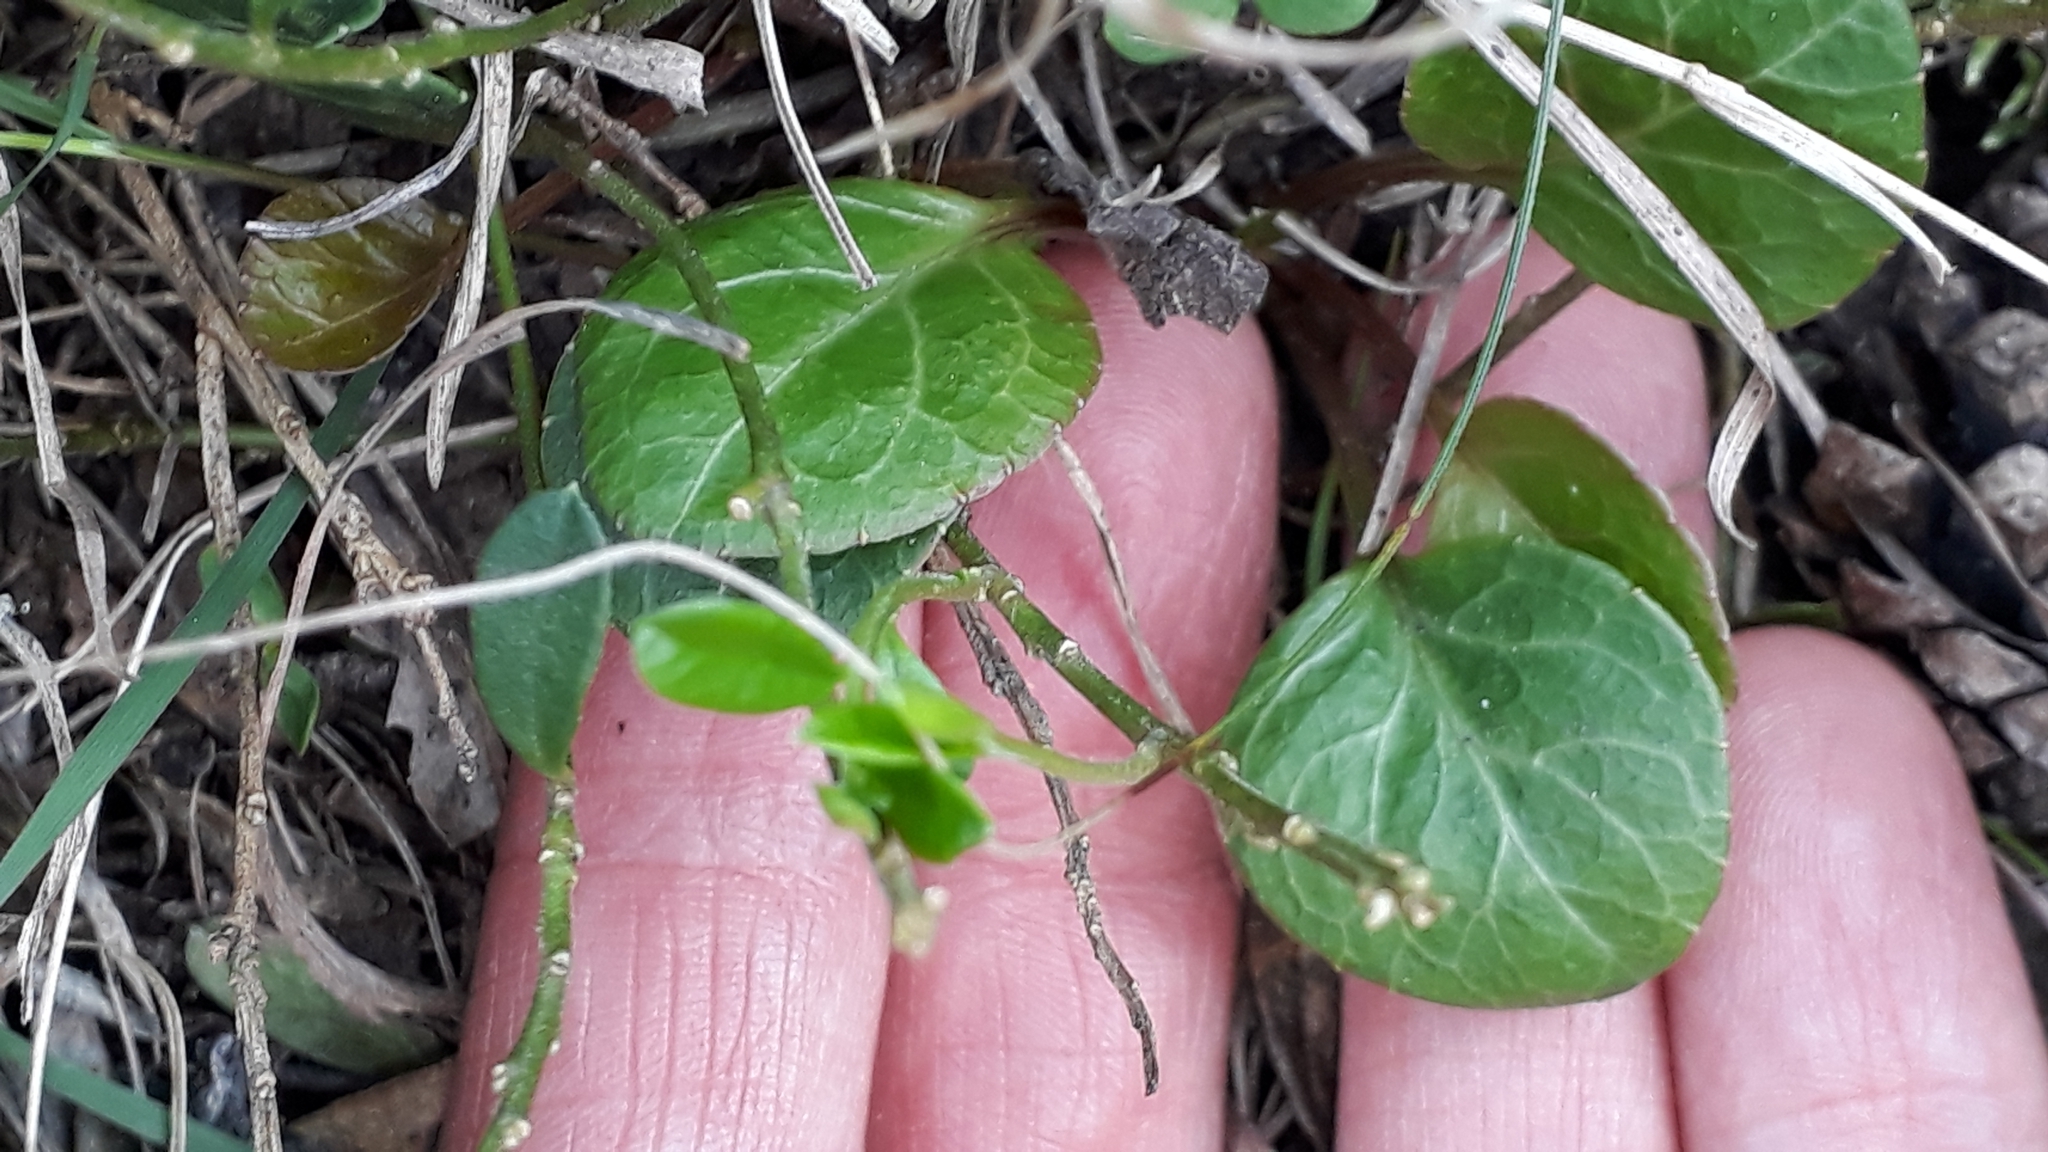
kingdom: Plantae
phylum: Tracheophyta
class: Magnoliopsida
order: Ericales
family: Ericaceae
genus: Pyrola
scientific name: Pyrola chlorantha
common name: Green wintergreen
